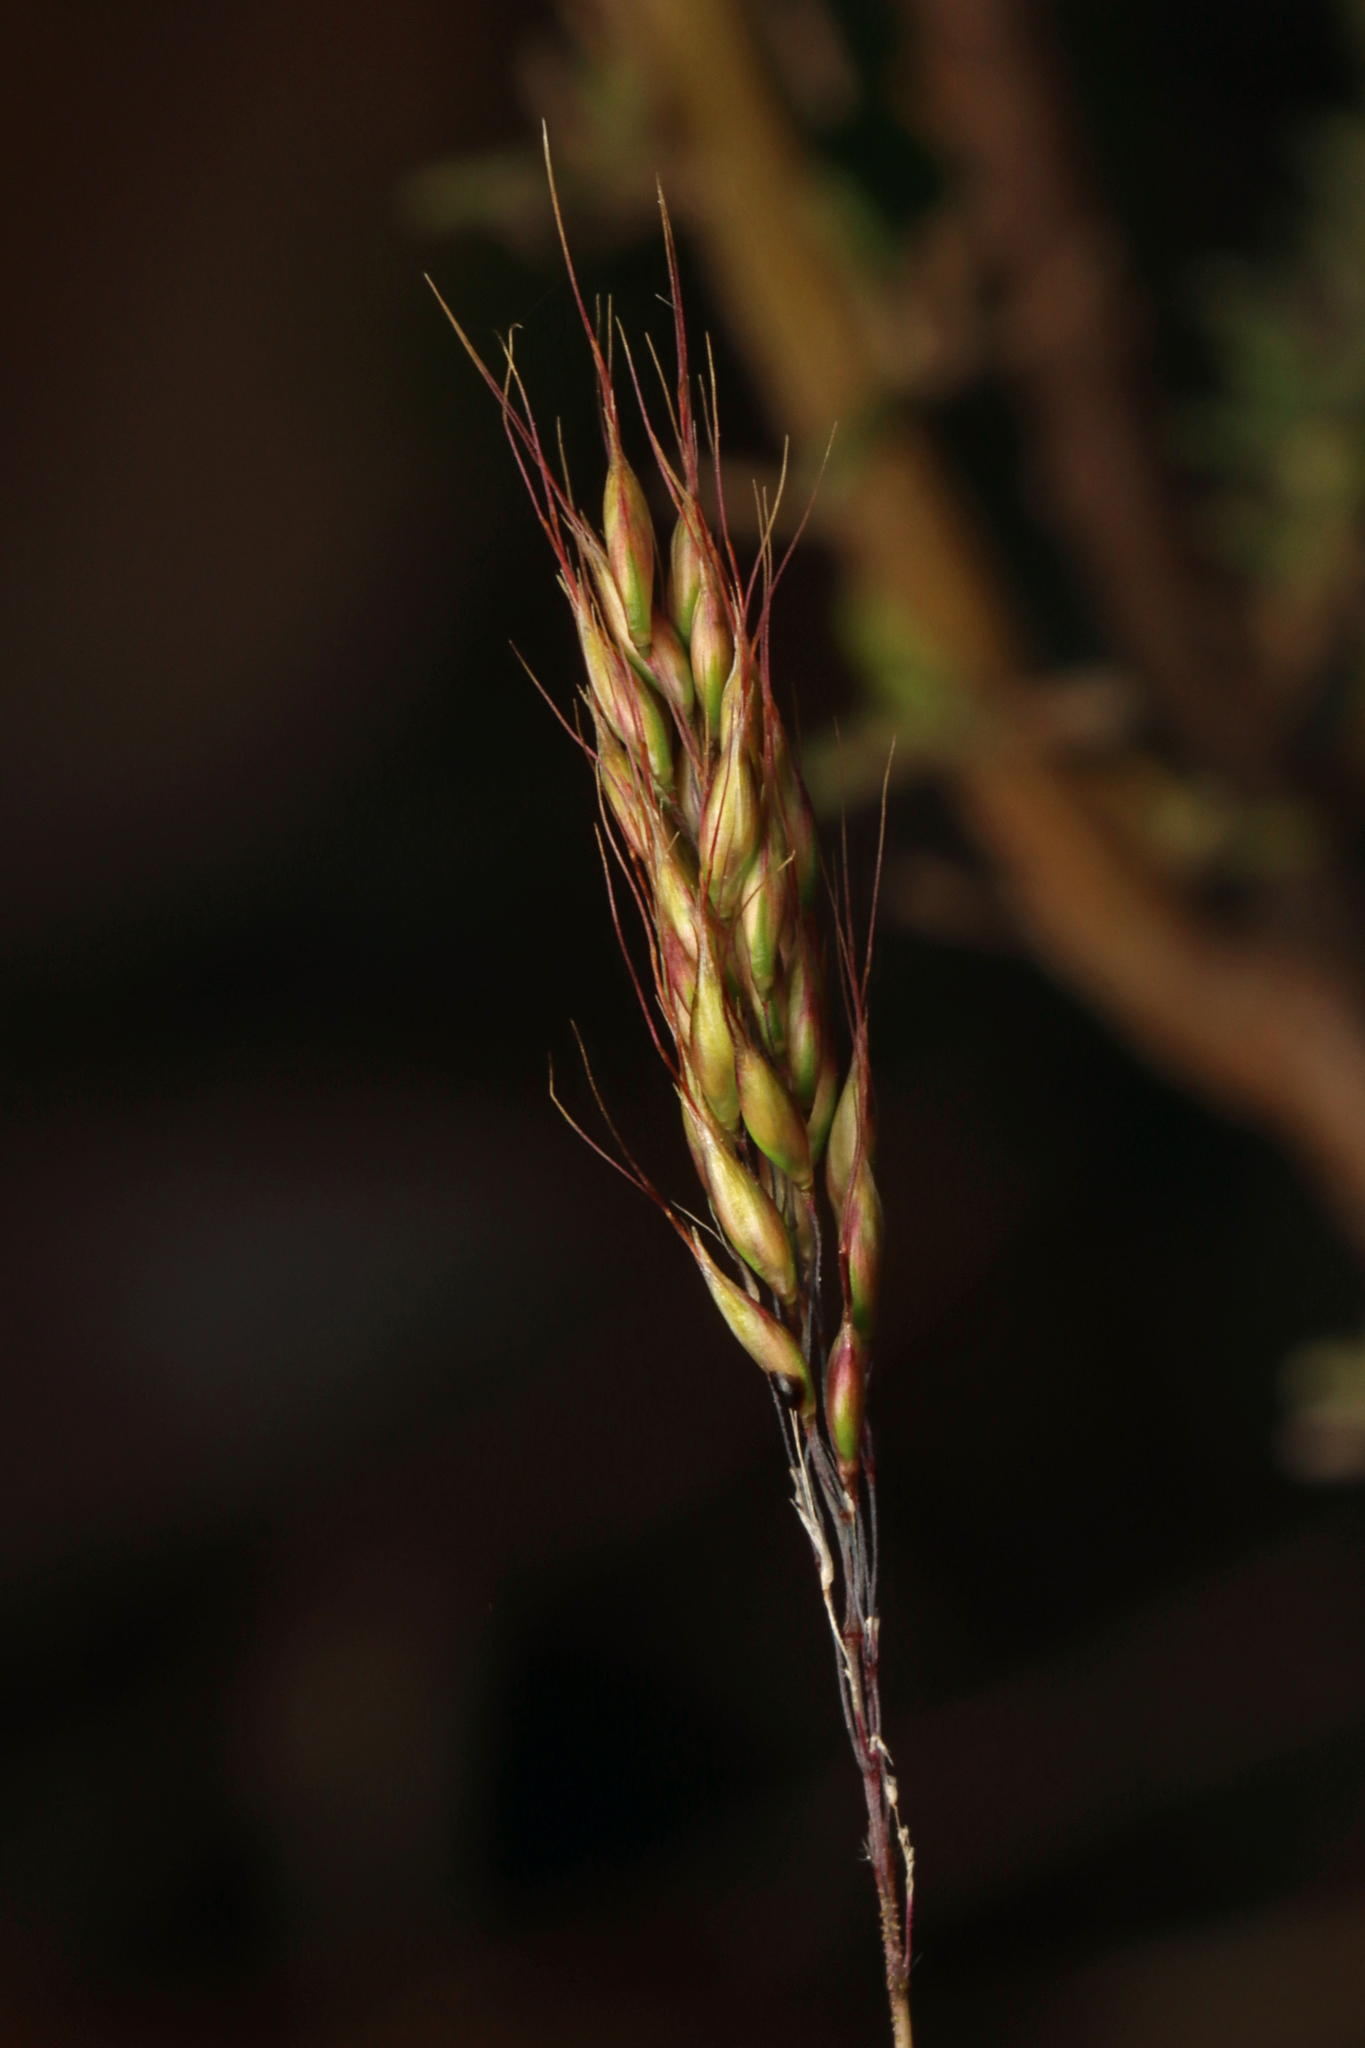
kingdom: Plantae
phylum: Tracheophyta
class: Liliopsida
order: Poales
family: Poaceae
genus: Pentameris
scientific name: Pentameris pallida
